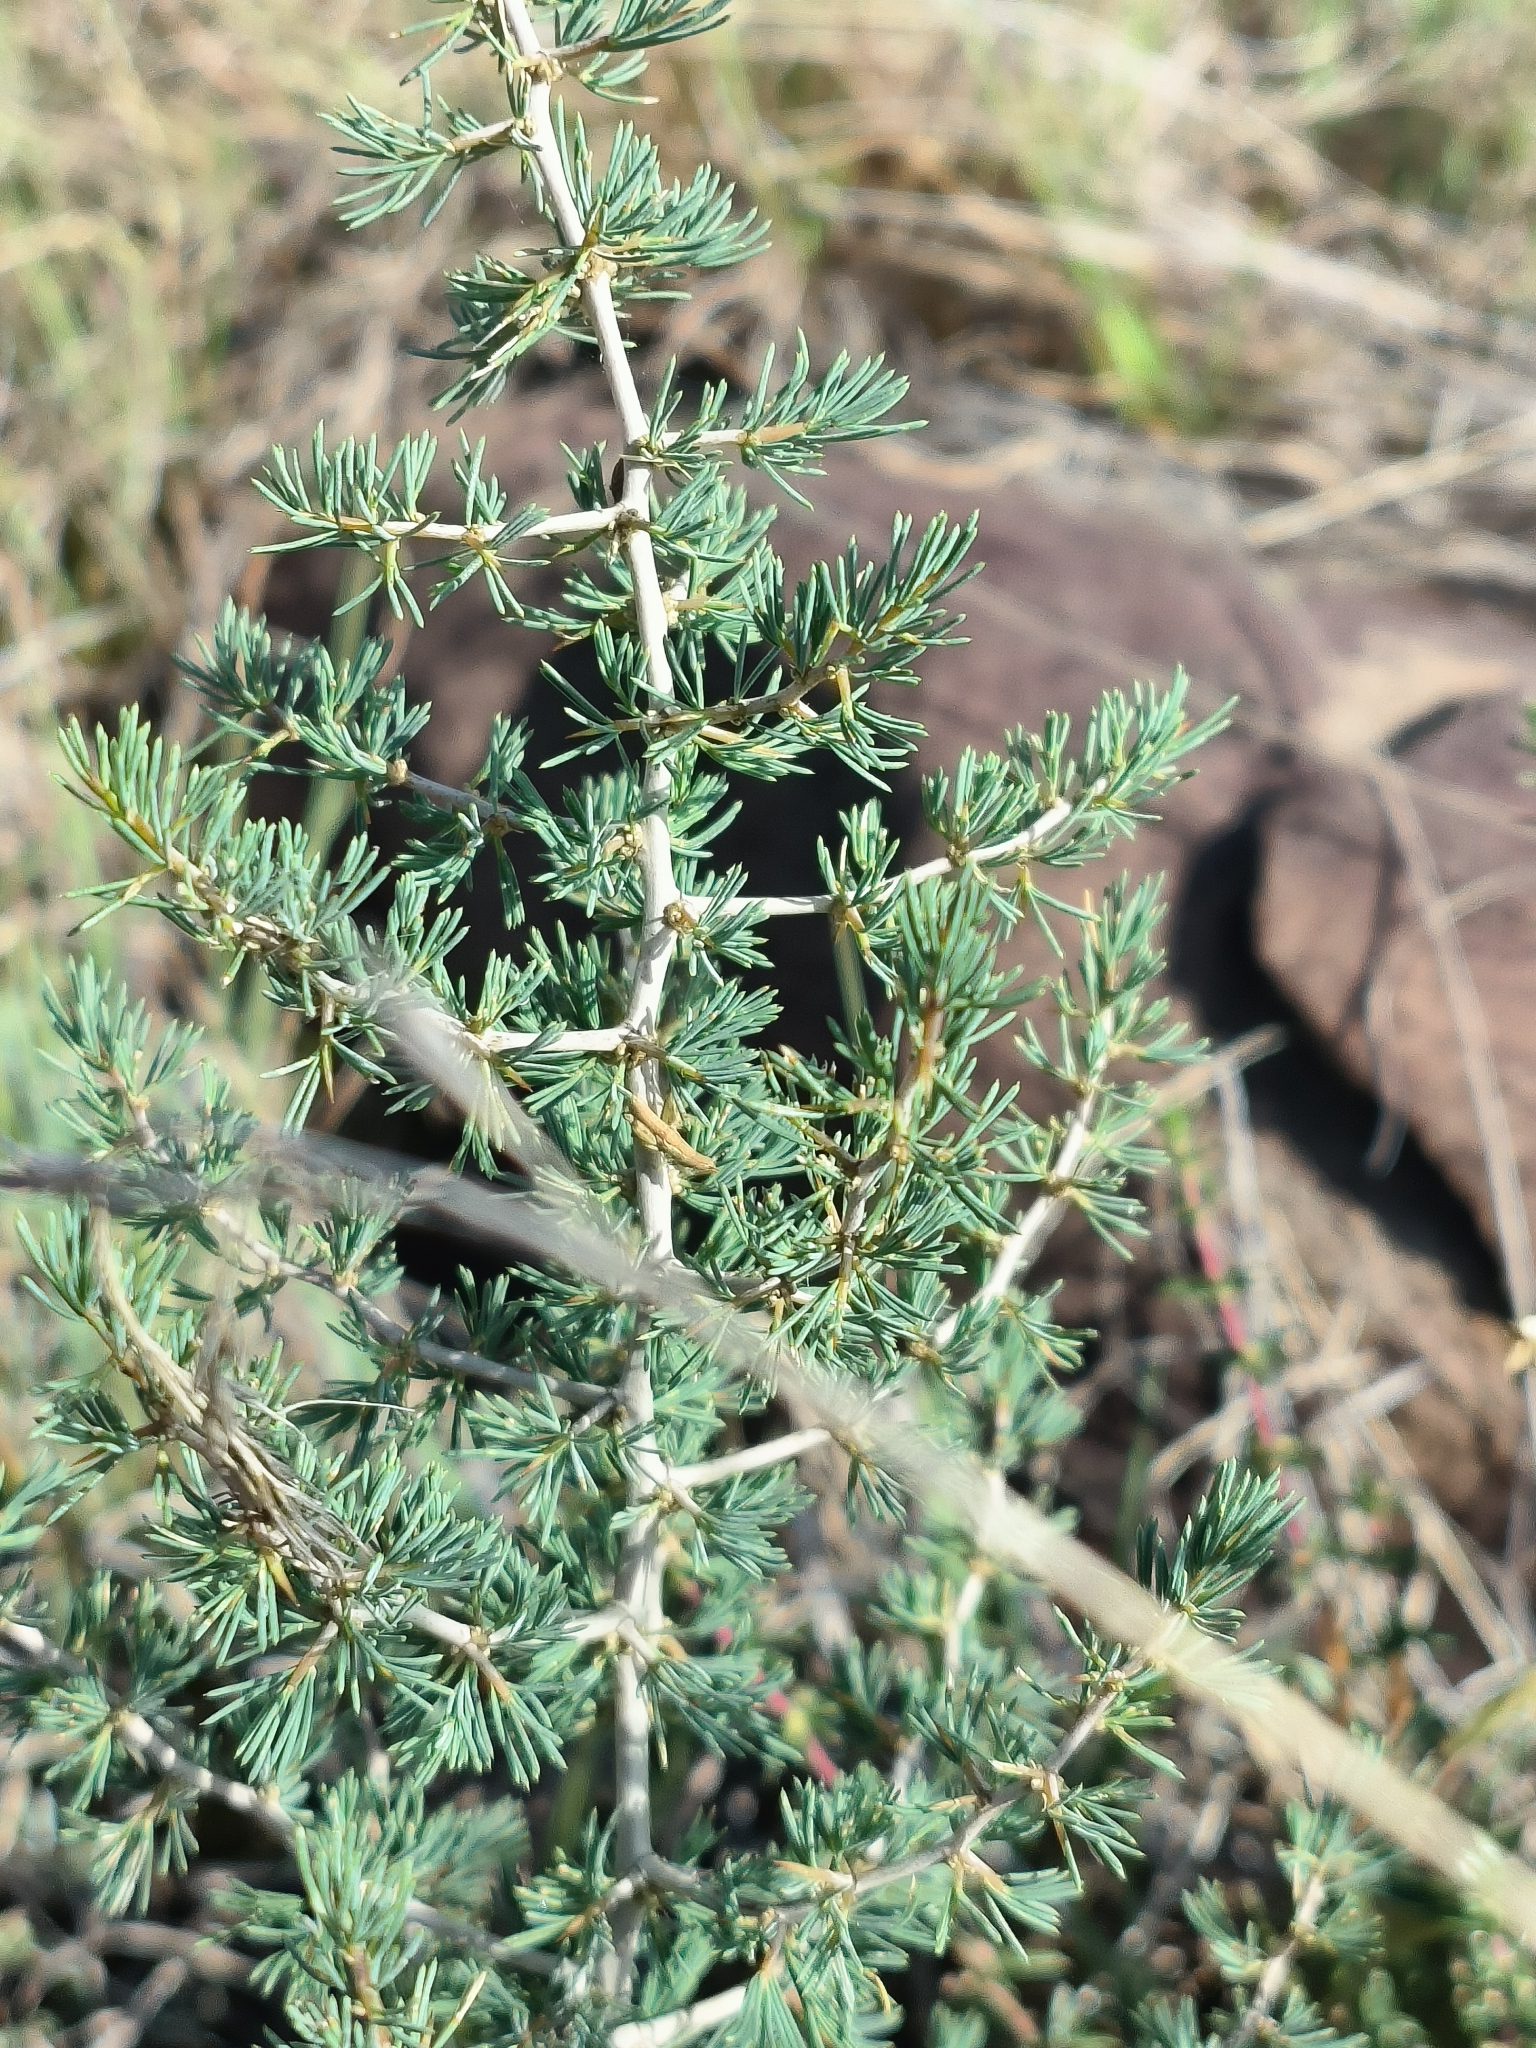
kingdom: Plantae
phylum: Tracheophyta
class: Liliopsida
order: Asparagales
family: Asparagaceae
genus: Asparagus
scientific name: Asparagus suaveolens
